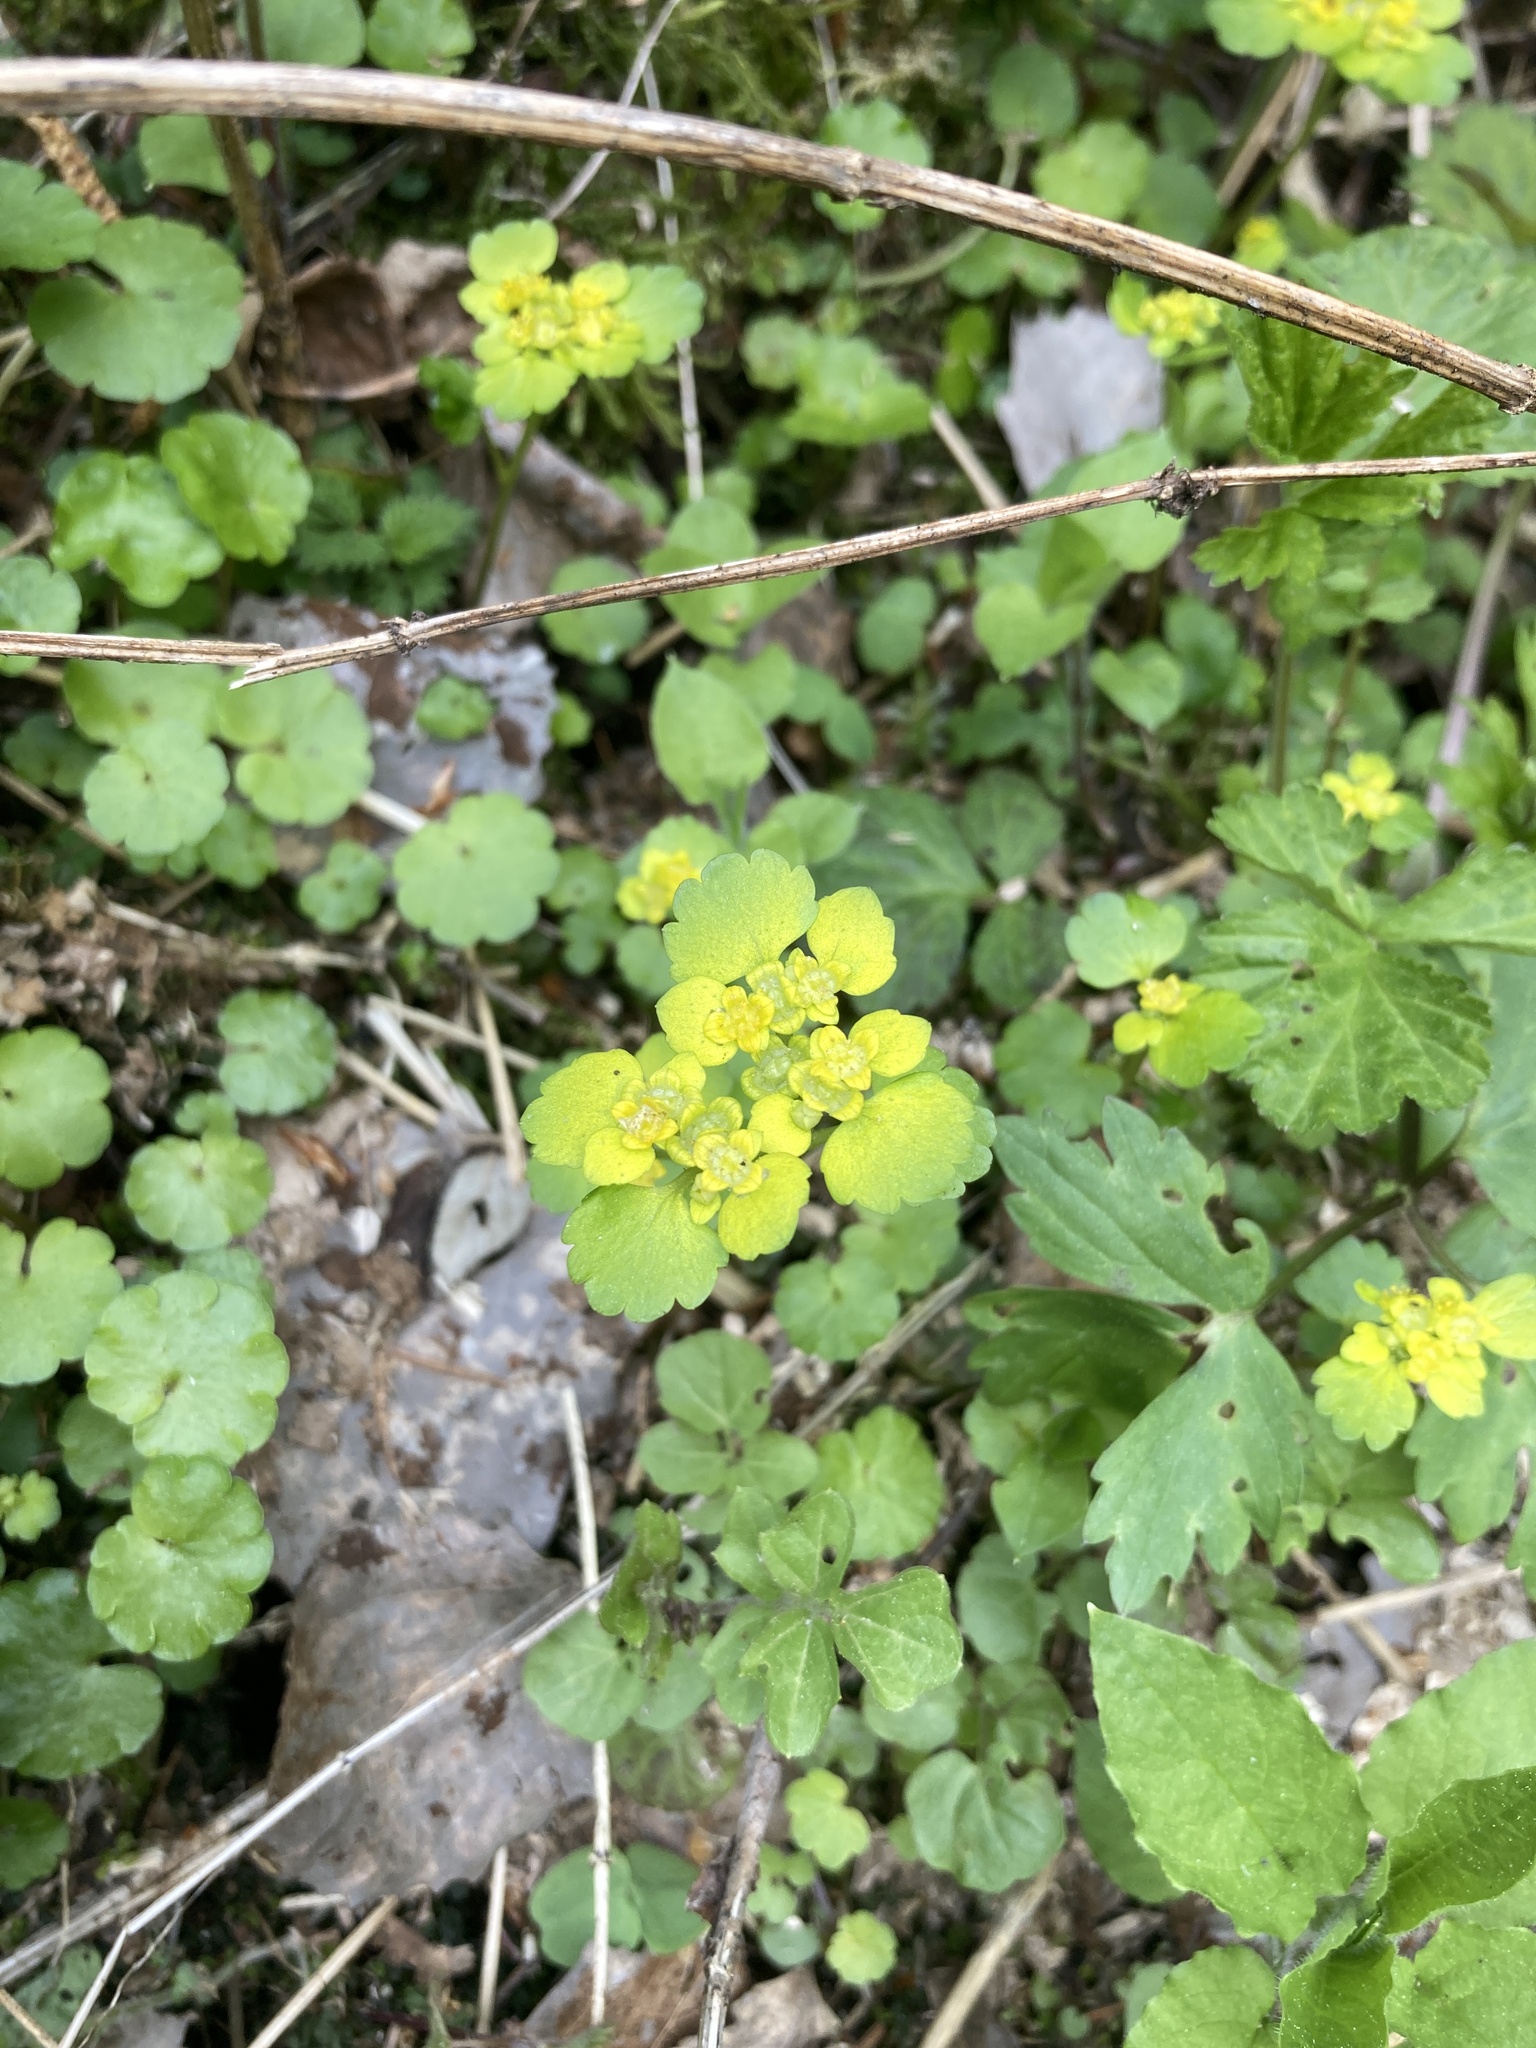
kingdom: Plantae
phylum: Tracheophyta
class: Magnoliopsida
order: Saxifragales
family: Saxifragaceae
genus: Chrysosplenium
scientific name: Chrysosplenium alternifolium
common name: Alternate-leaved golden-saxifrage
